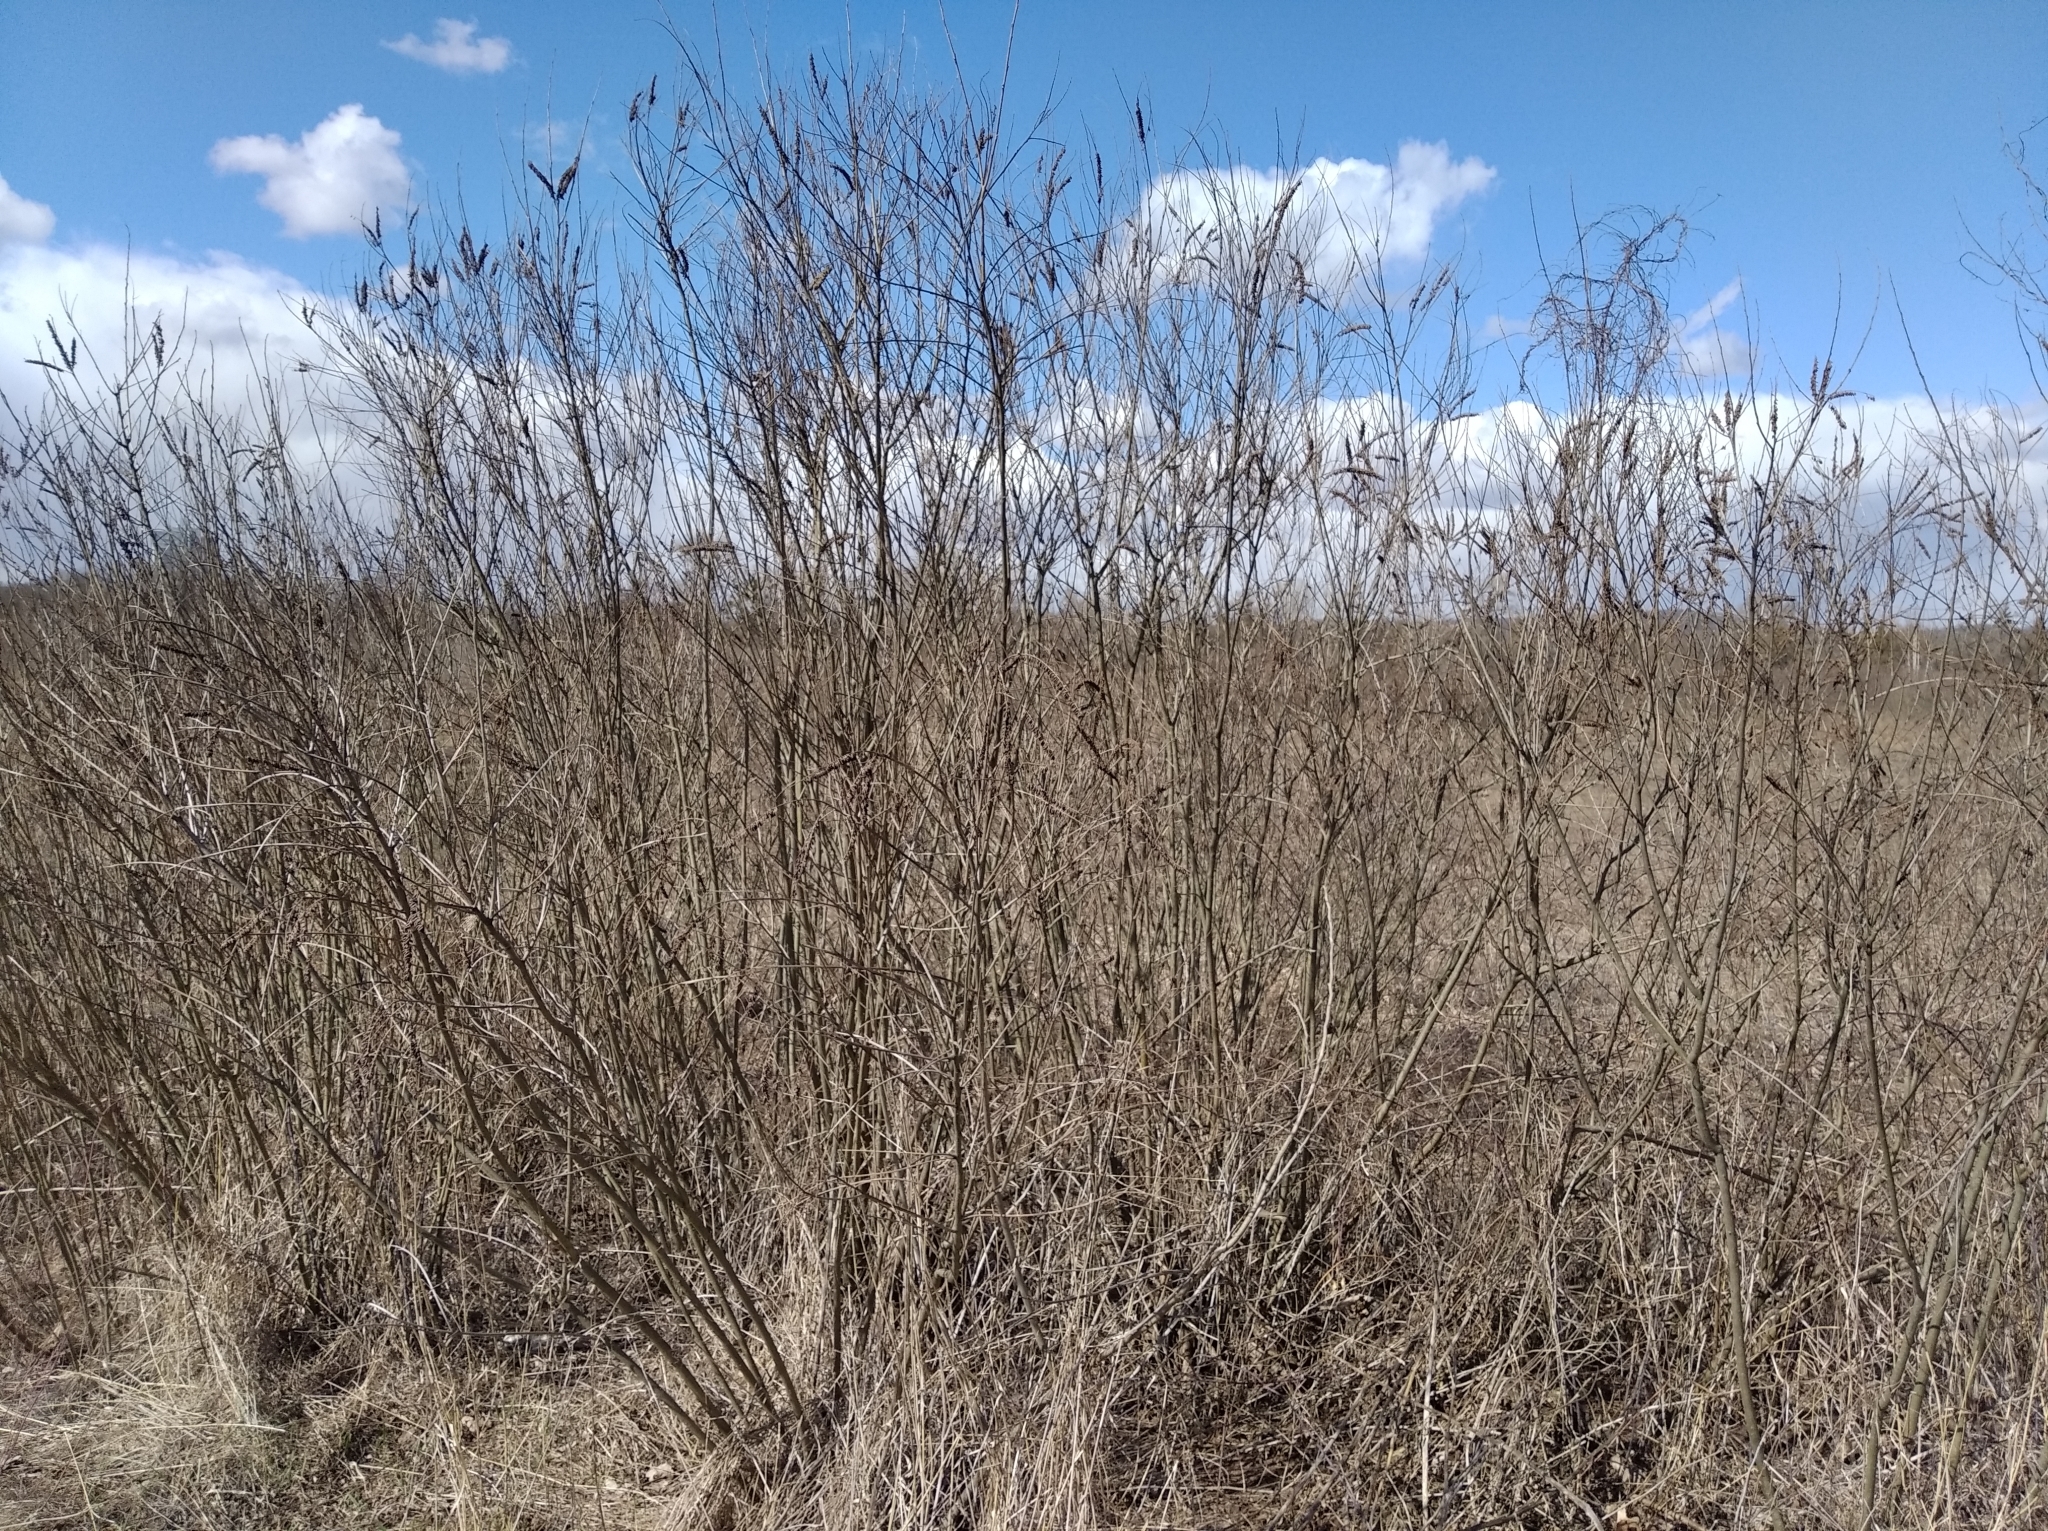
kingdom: Plantae
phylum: Tracheophyta
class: Magnoliopsida
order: Fabales
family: Fabaceae
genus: Amorpha
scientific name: Amorpha fruticosa
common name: False indigo
